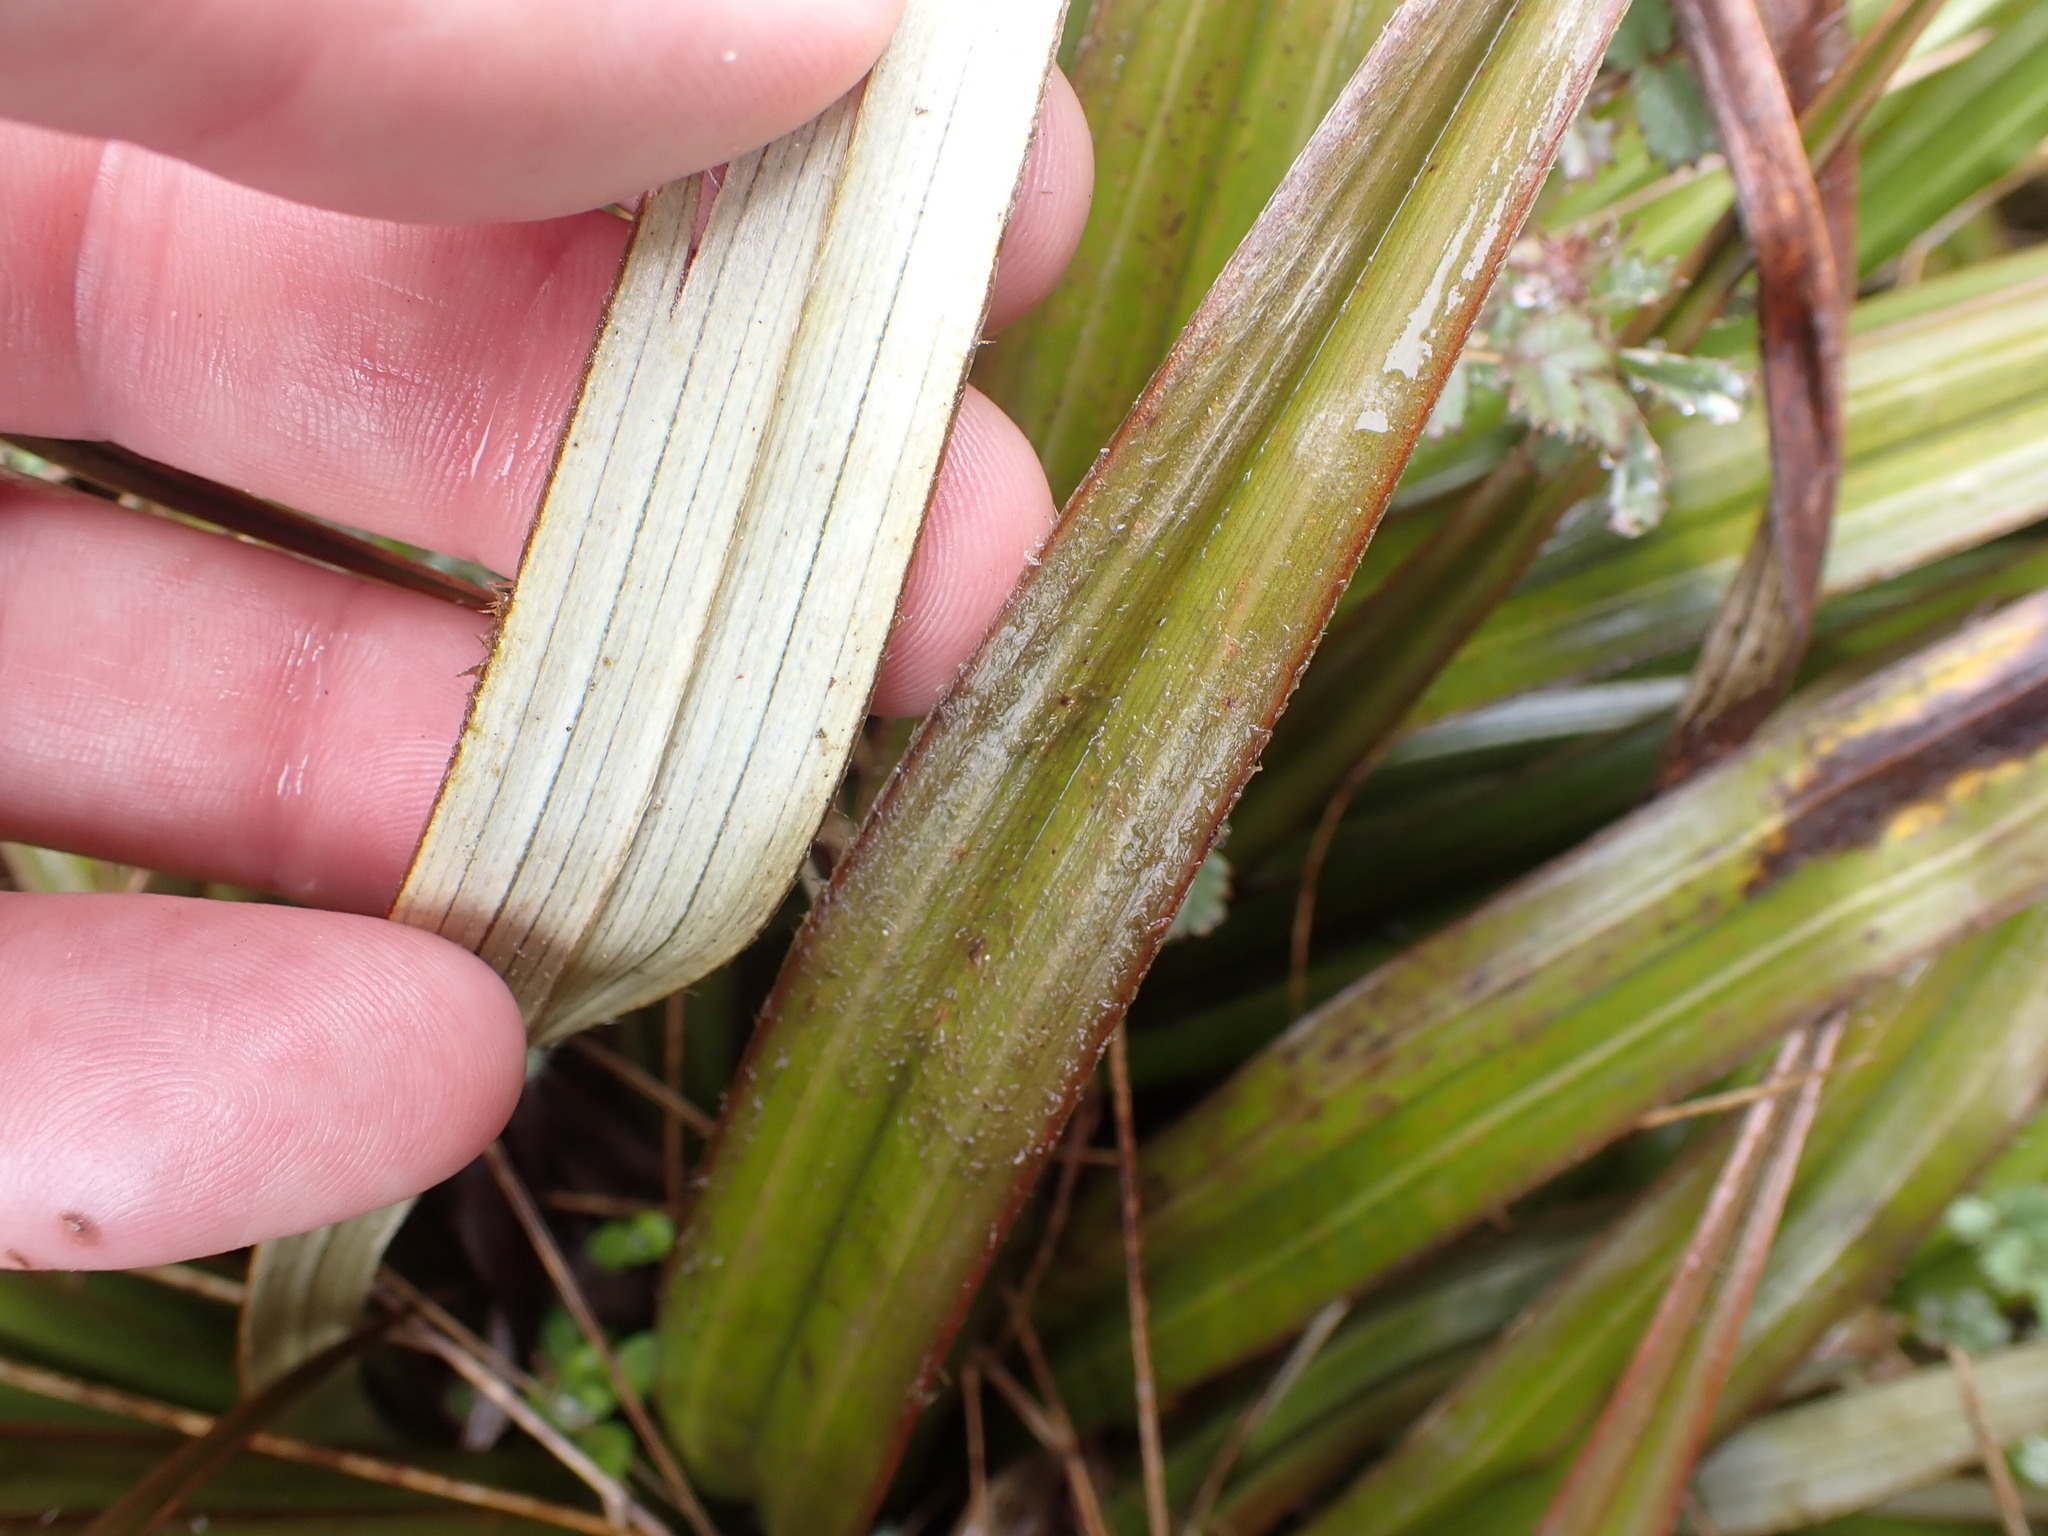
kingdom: Plantae
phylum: Tracheophyta
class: Liliopsida
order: Asparagales
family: Asteliaceae
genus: Astelia
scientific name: Astelia nivicola
